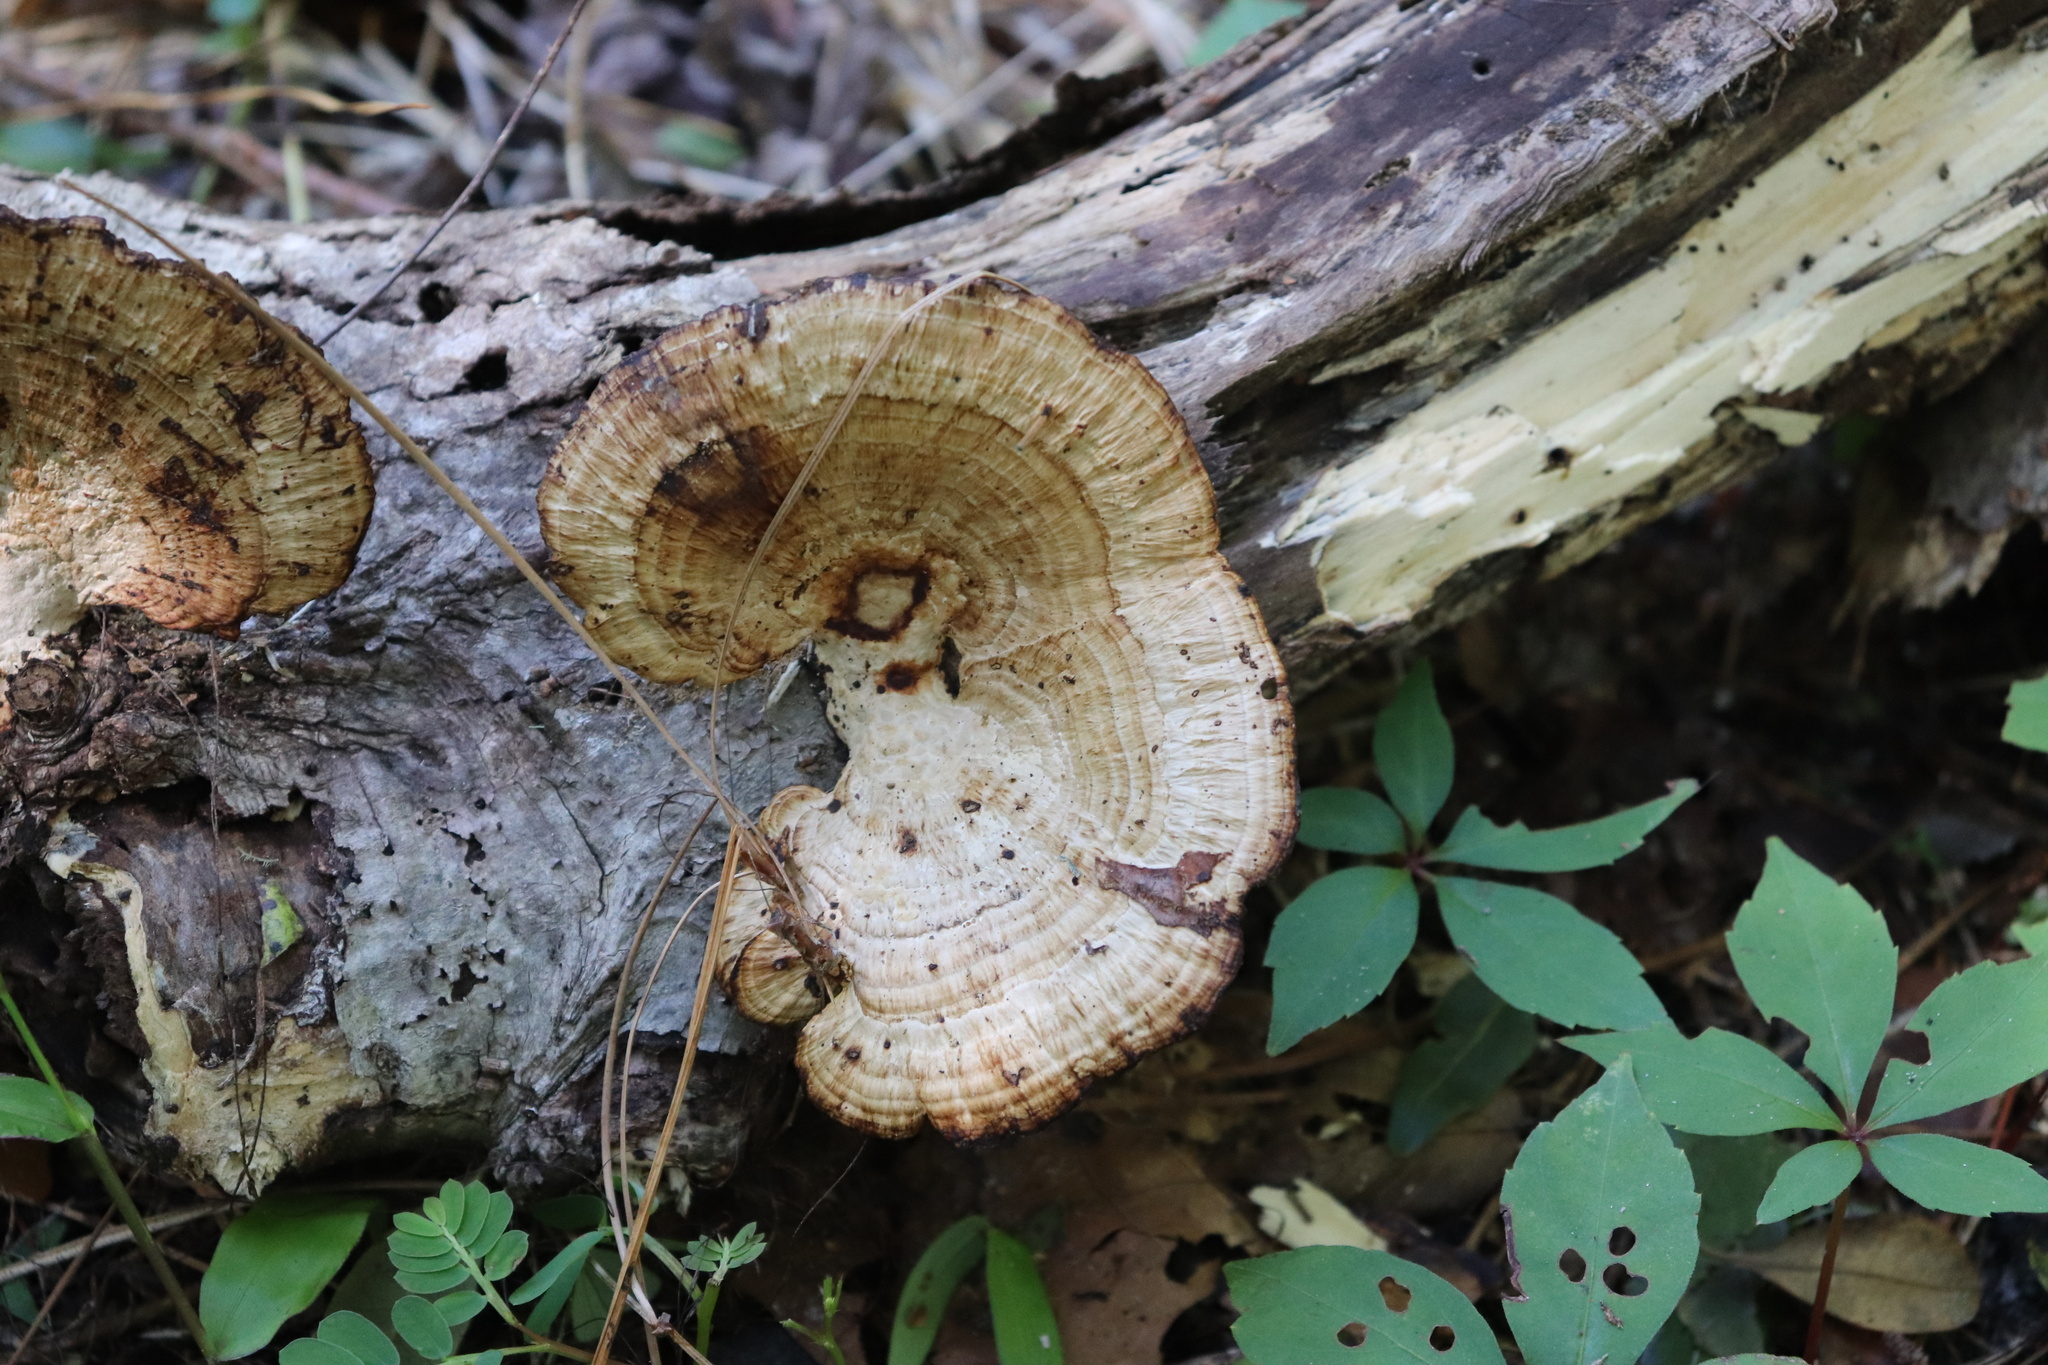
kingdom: Fungi
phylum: Basidiomycota
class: Agaricomycetes
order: Polyporales
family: Polyporaceae
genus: Daedaleopsis
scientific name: Daedaleopsis confragosa
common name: Blushing bracket
